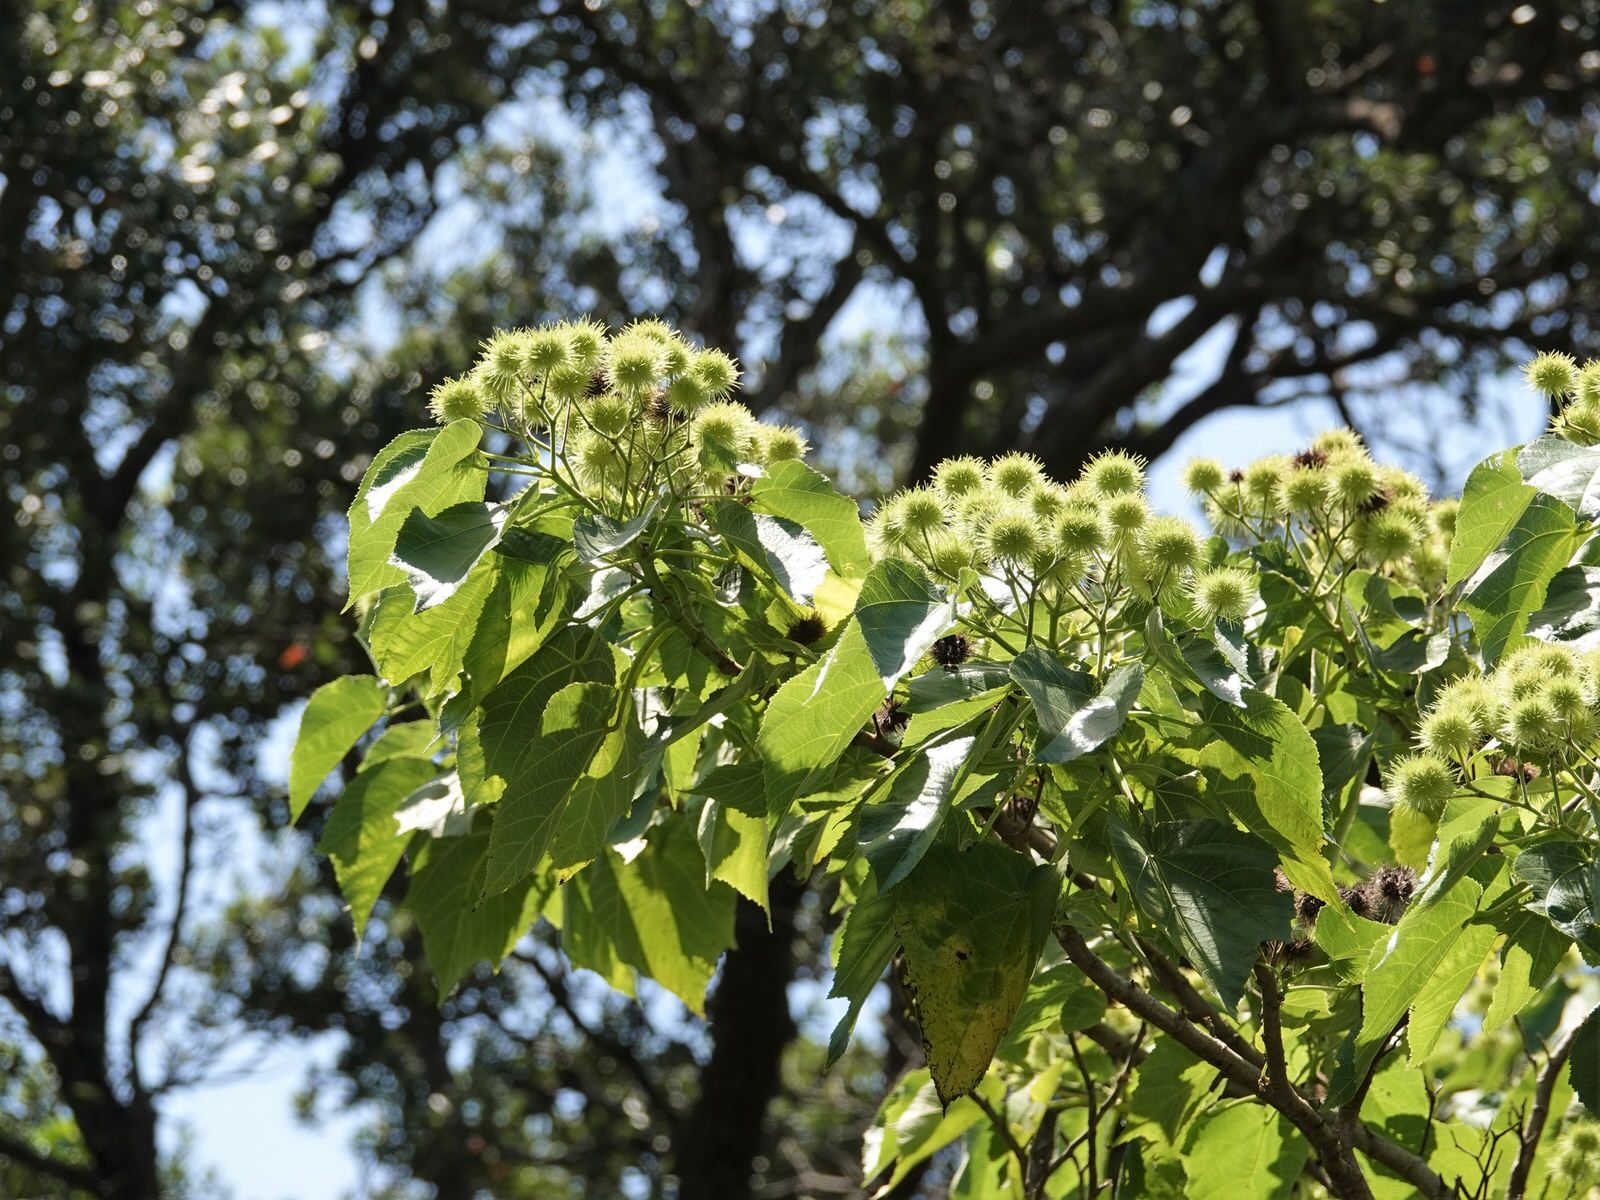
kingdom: Plantae
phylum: Tracheophyta
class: Magnoliopsida
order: Malvales
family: Malvaceae
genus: Entelea
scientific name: Entelea arborescens
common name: New zealand-mulberry
